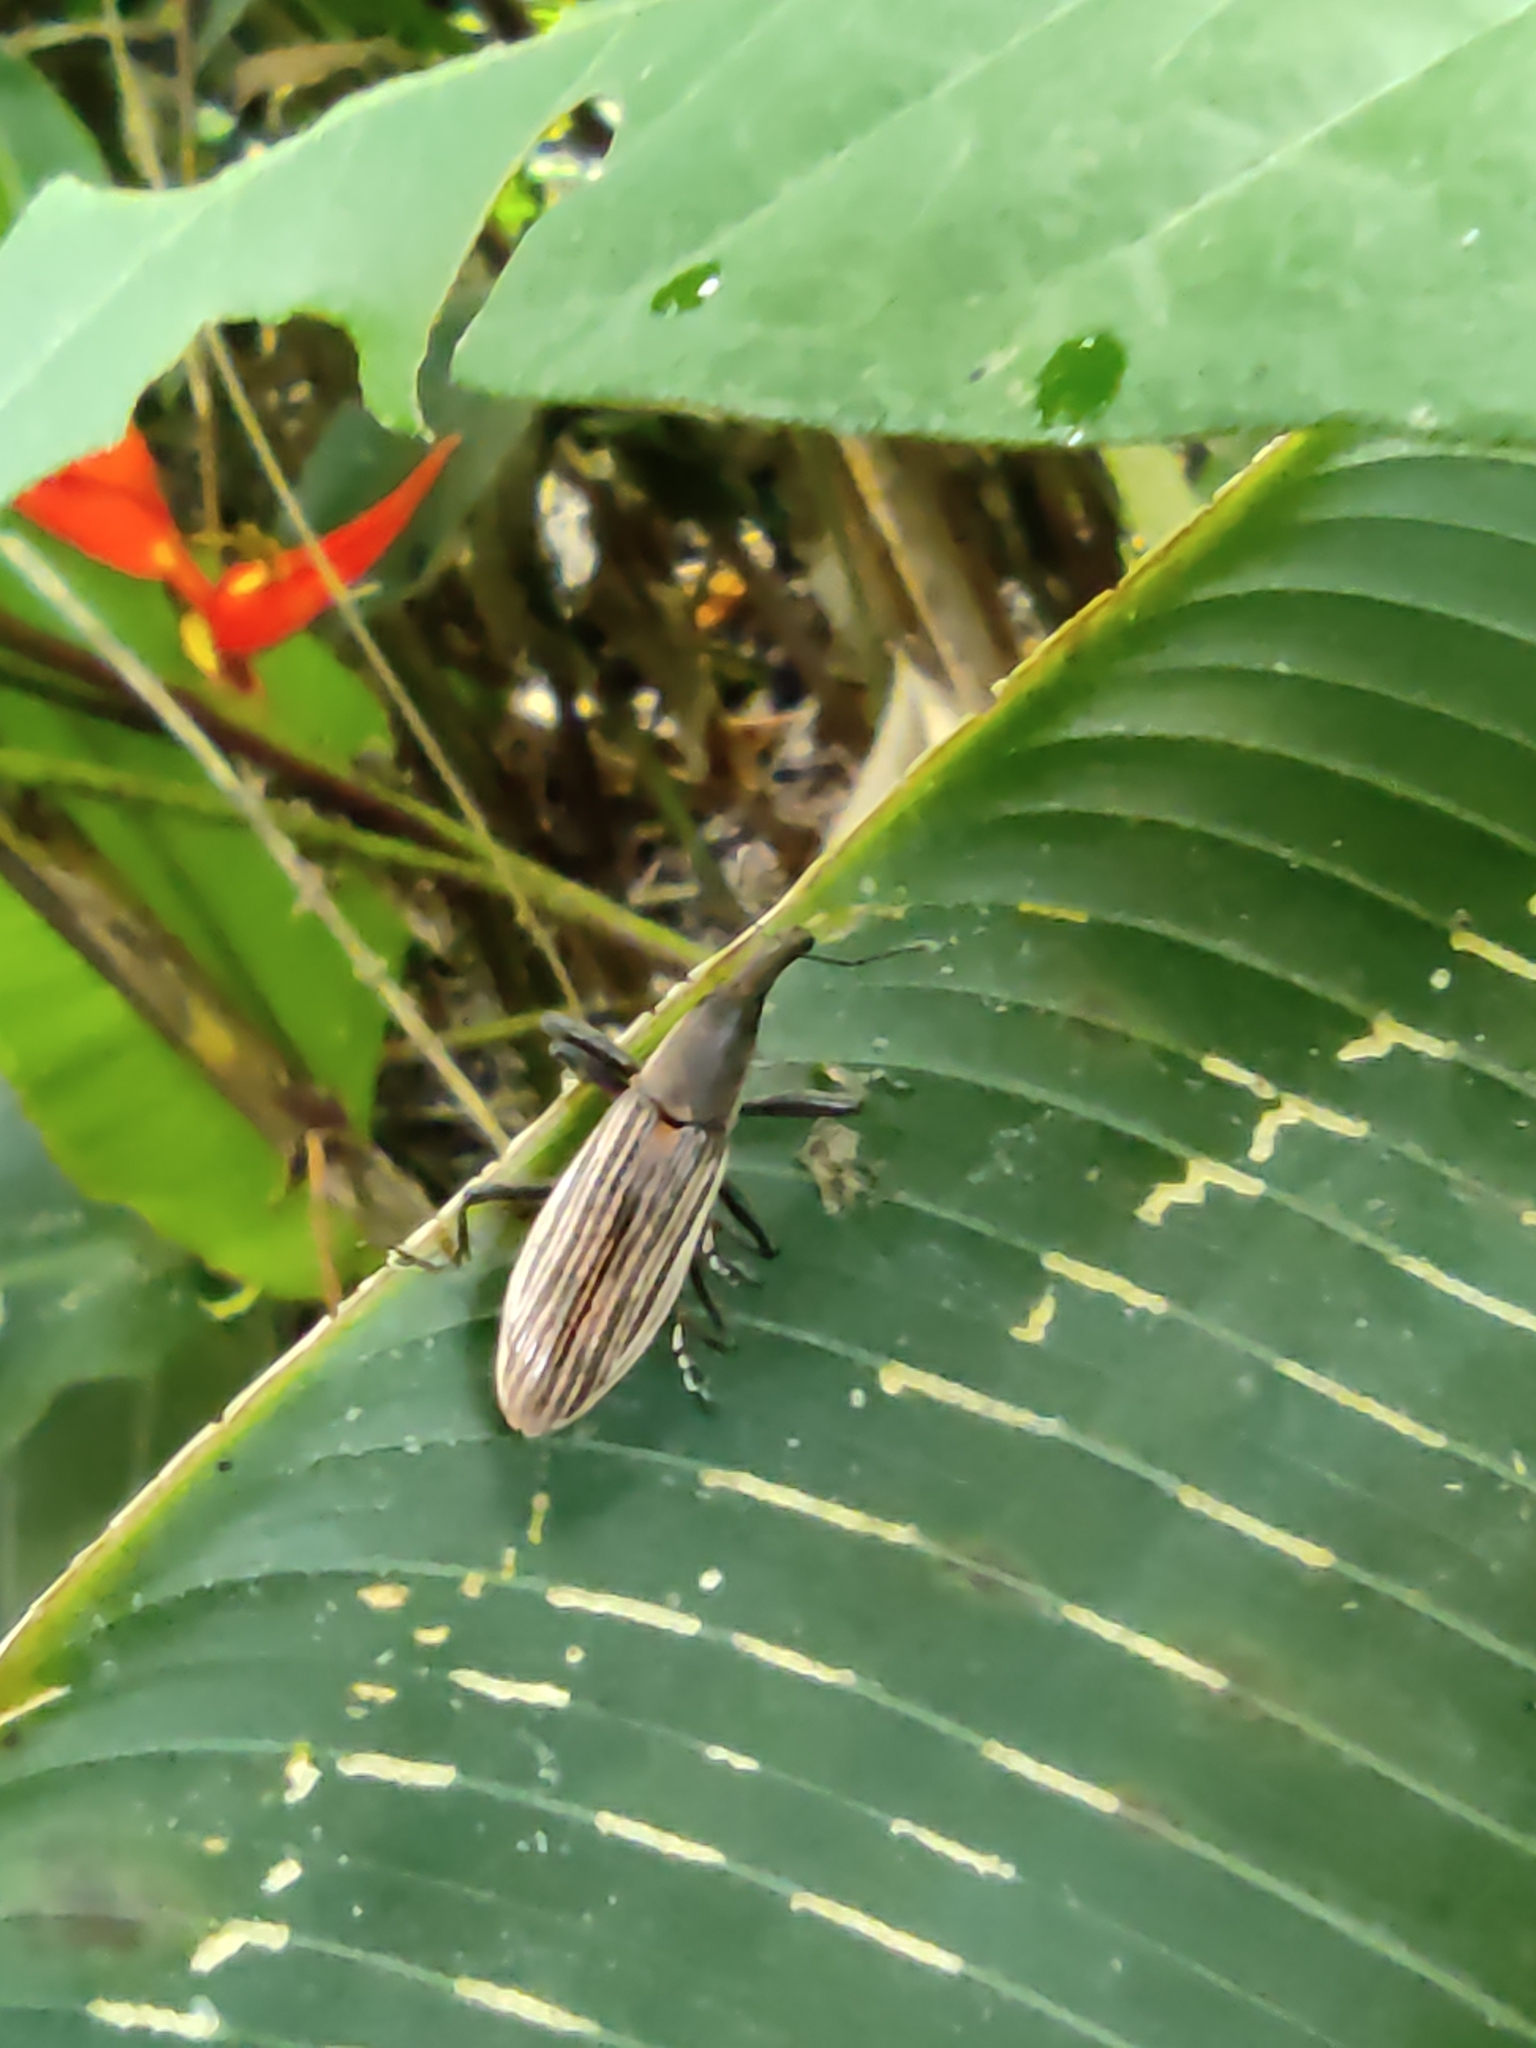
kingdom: Animalia
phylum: Arthropoda
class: Insecta
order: Coleoptera
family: Curculionidae
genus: Lixus
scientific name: Lixus apterus
